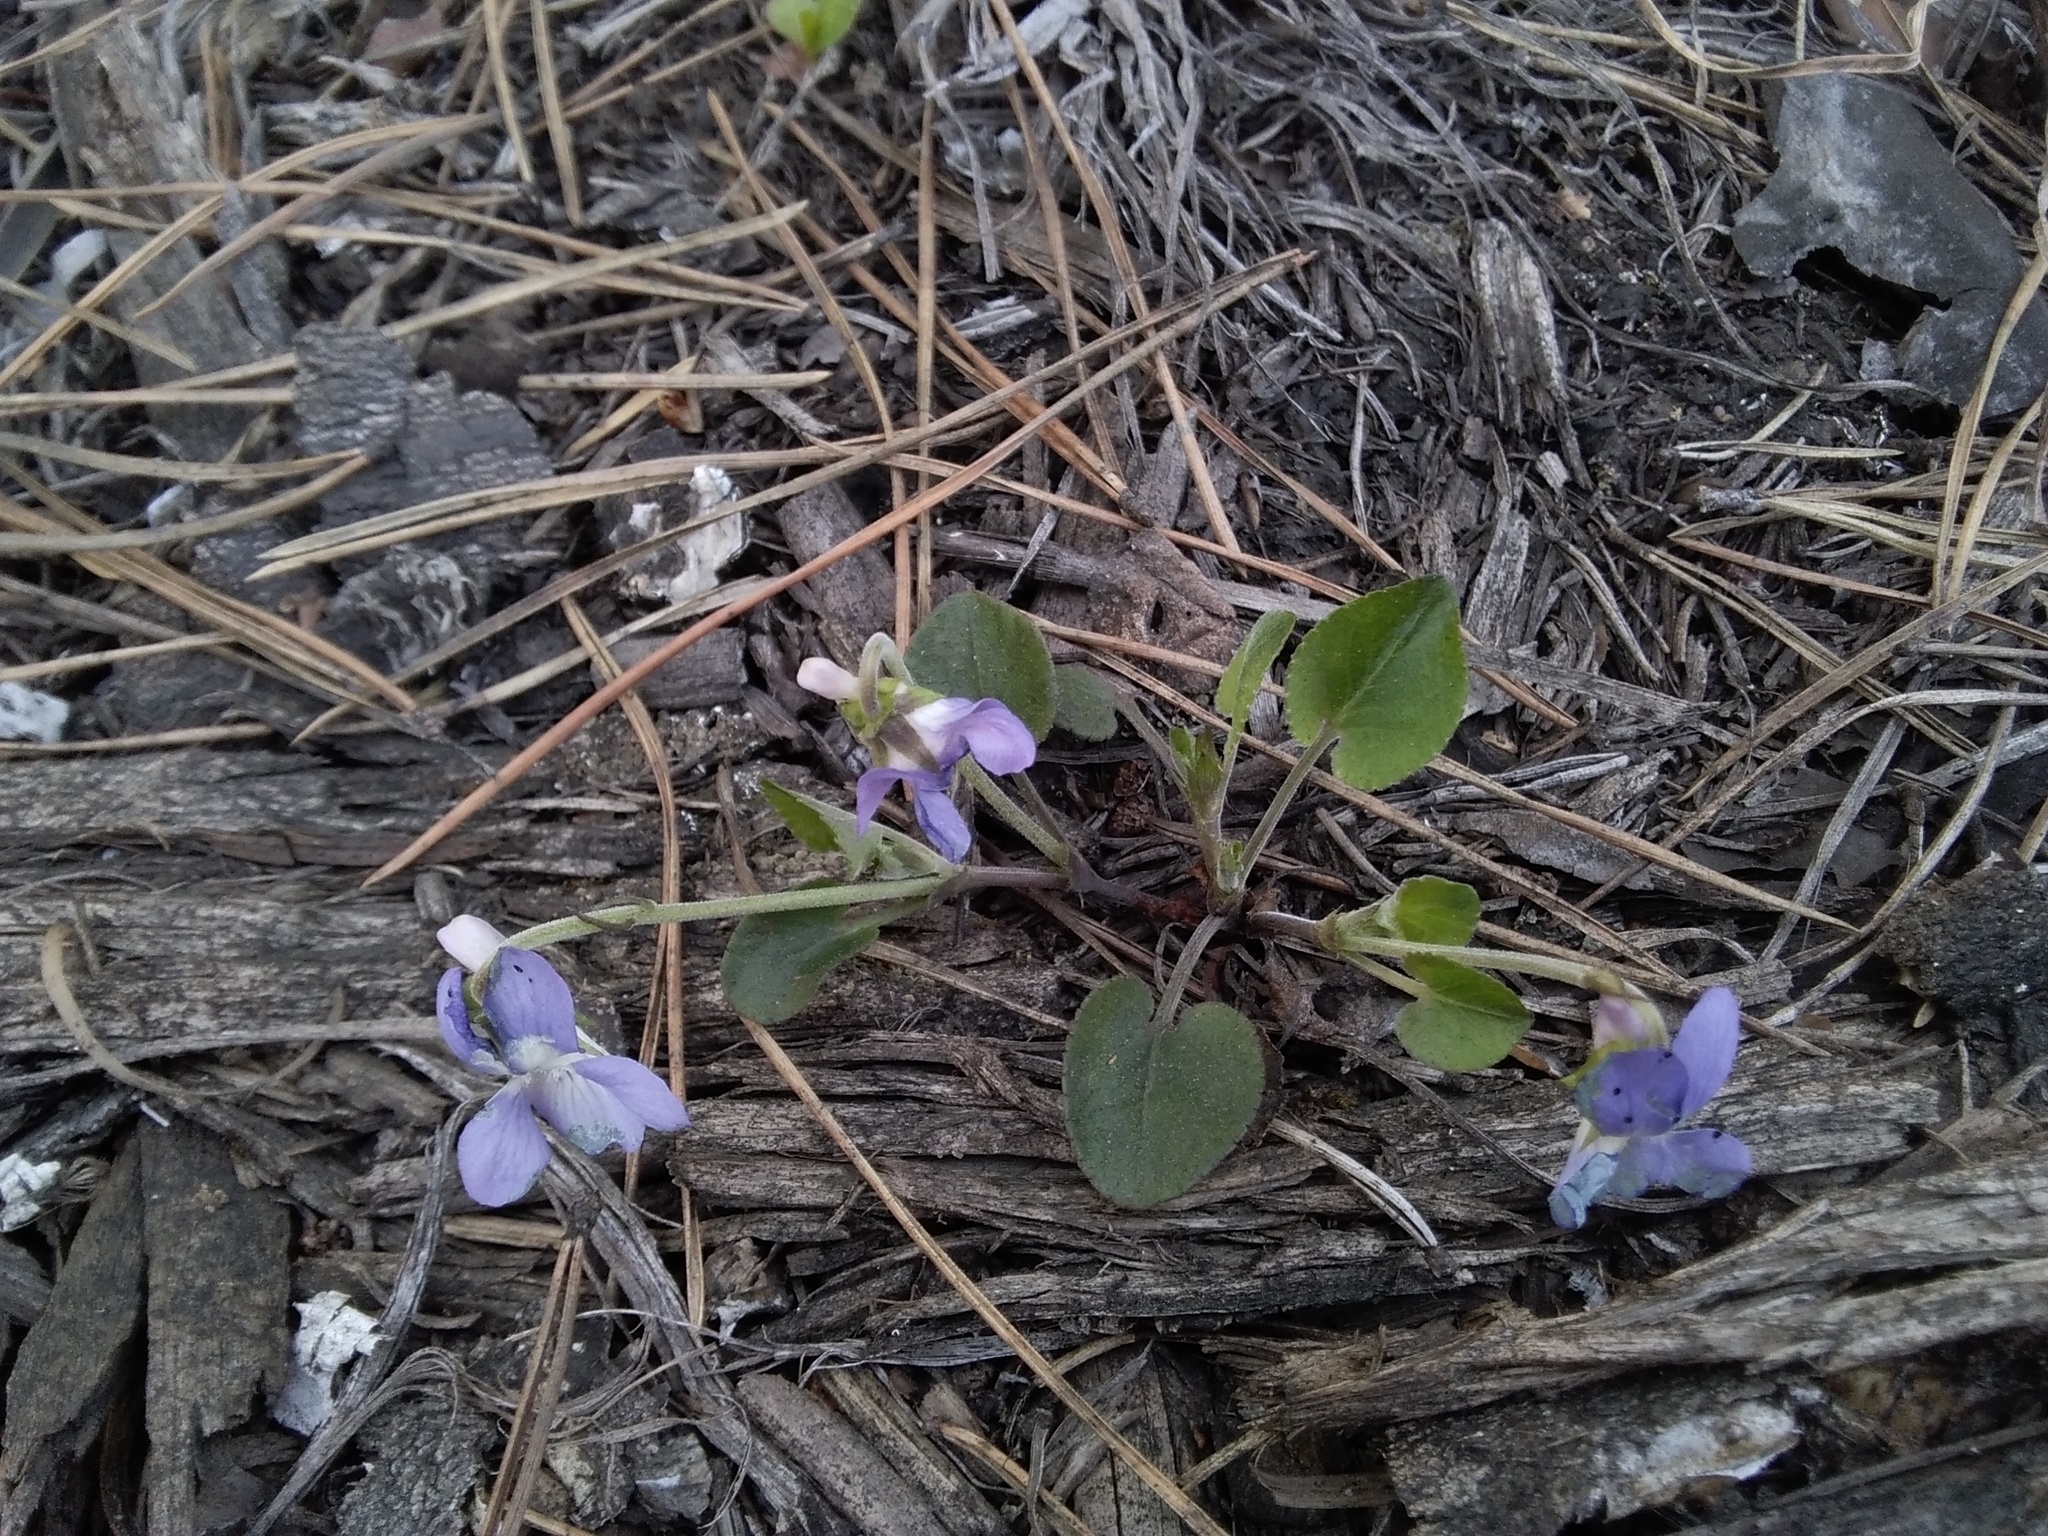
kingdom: Plantae
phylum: Tracheophyta
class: Magnoliopsida
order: Malpighiales
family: Violaceae
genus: Viola
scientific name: Viola rupestris
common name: Teesdale violet
